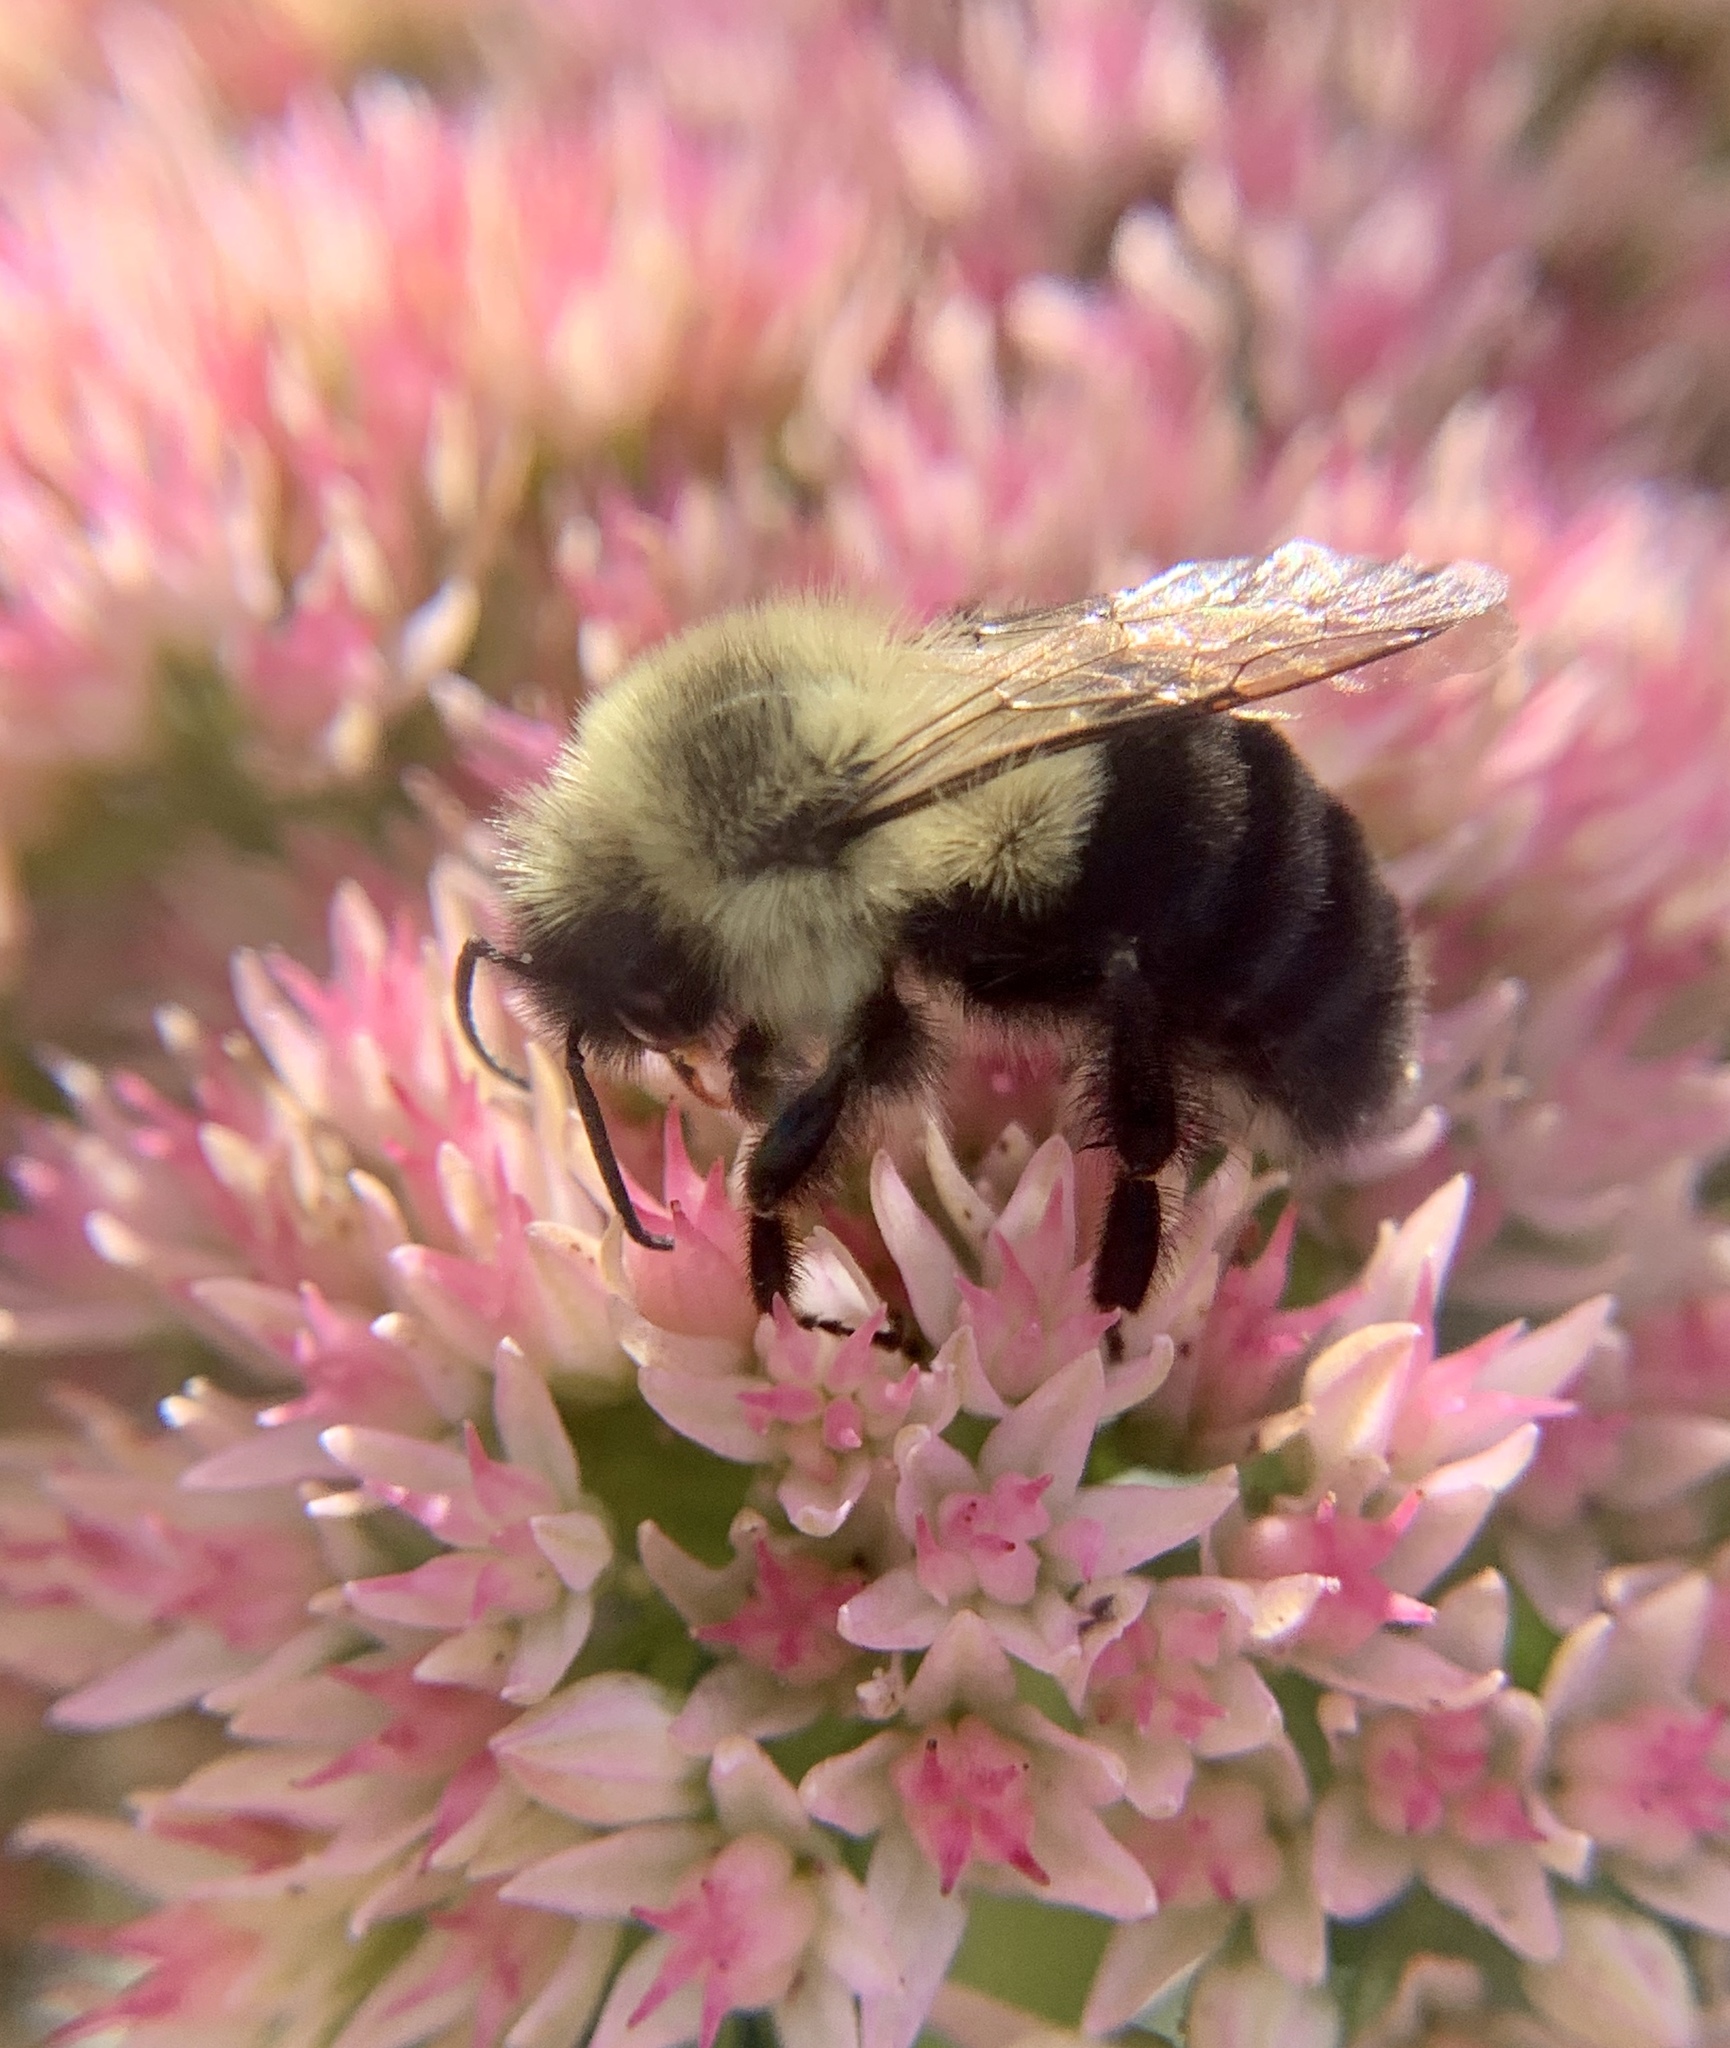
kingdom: Animalia
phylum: Arthropoda
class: Insecta
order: Hymenoptera
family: Apidae
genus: Bombus
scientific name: Bombus impatiens
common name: Common eastern bumble bee
